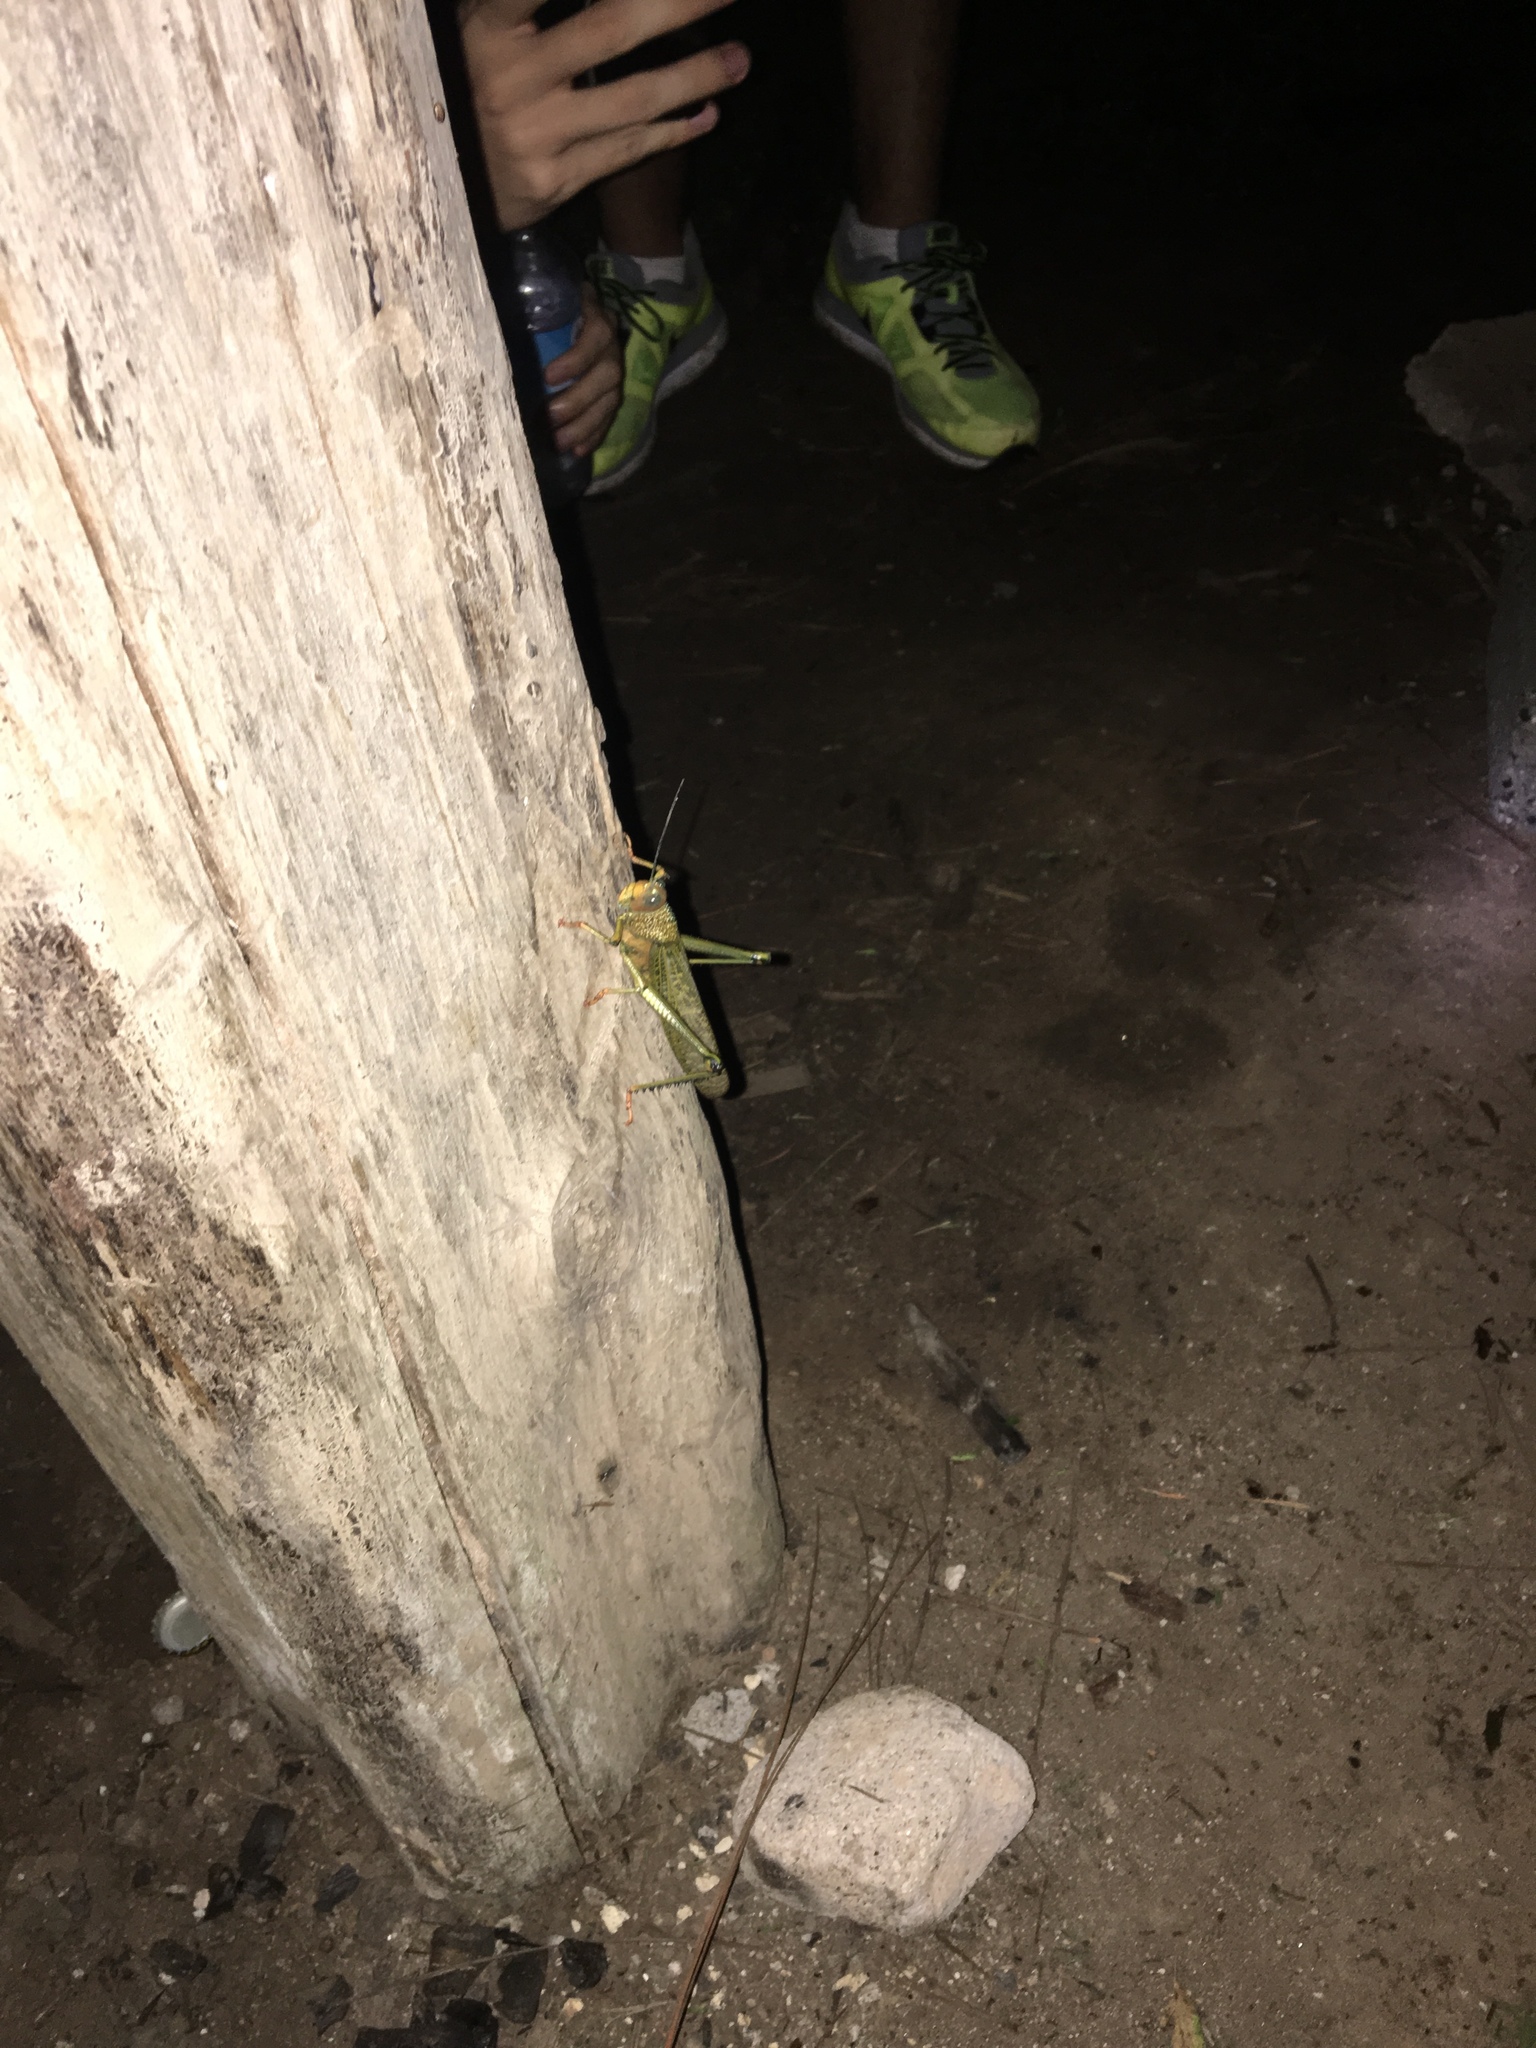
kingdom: Animalia
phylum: Arthropoda
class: Insecta
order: Orthoptera
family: Romaleidae
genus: Tropidacris
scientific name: Tropidacris cristata
